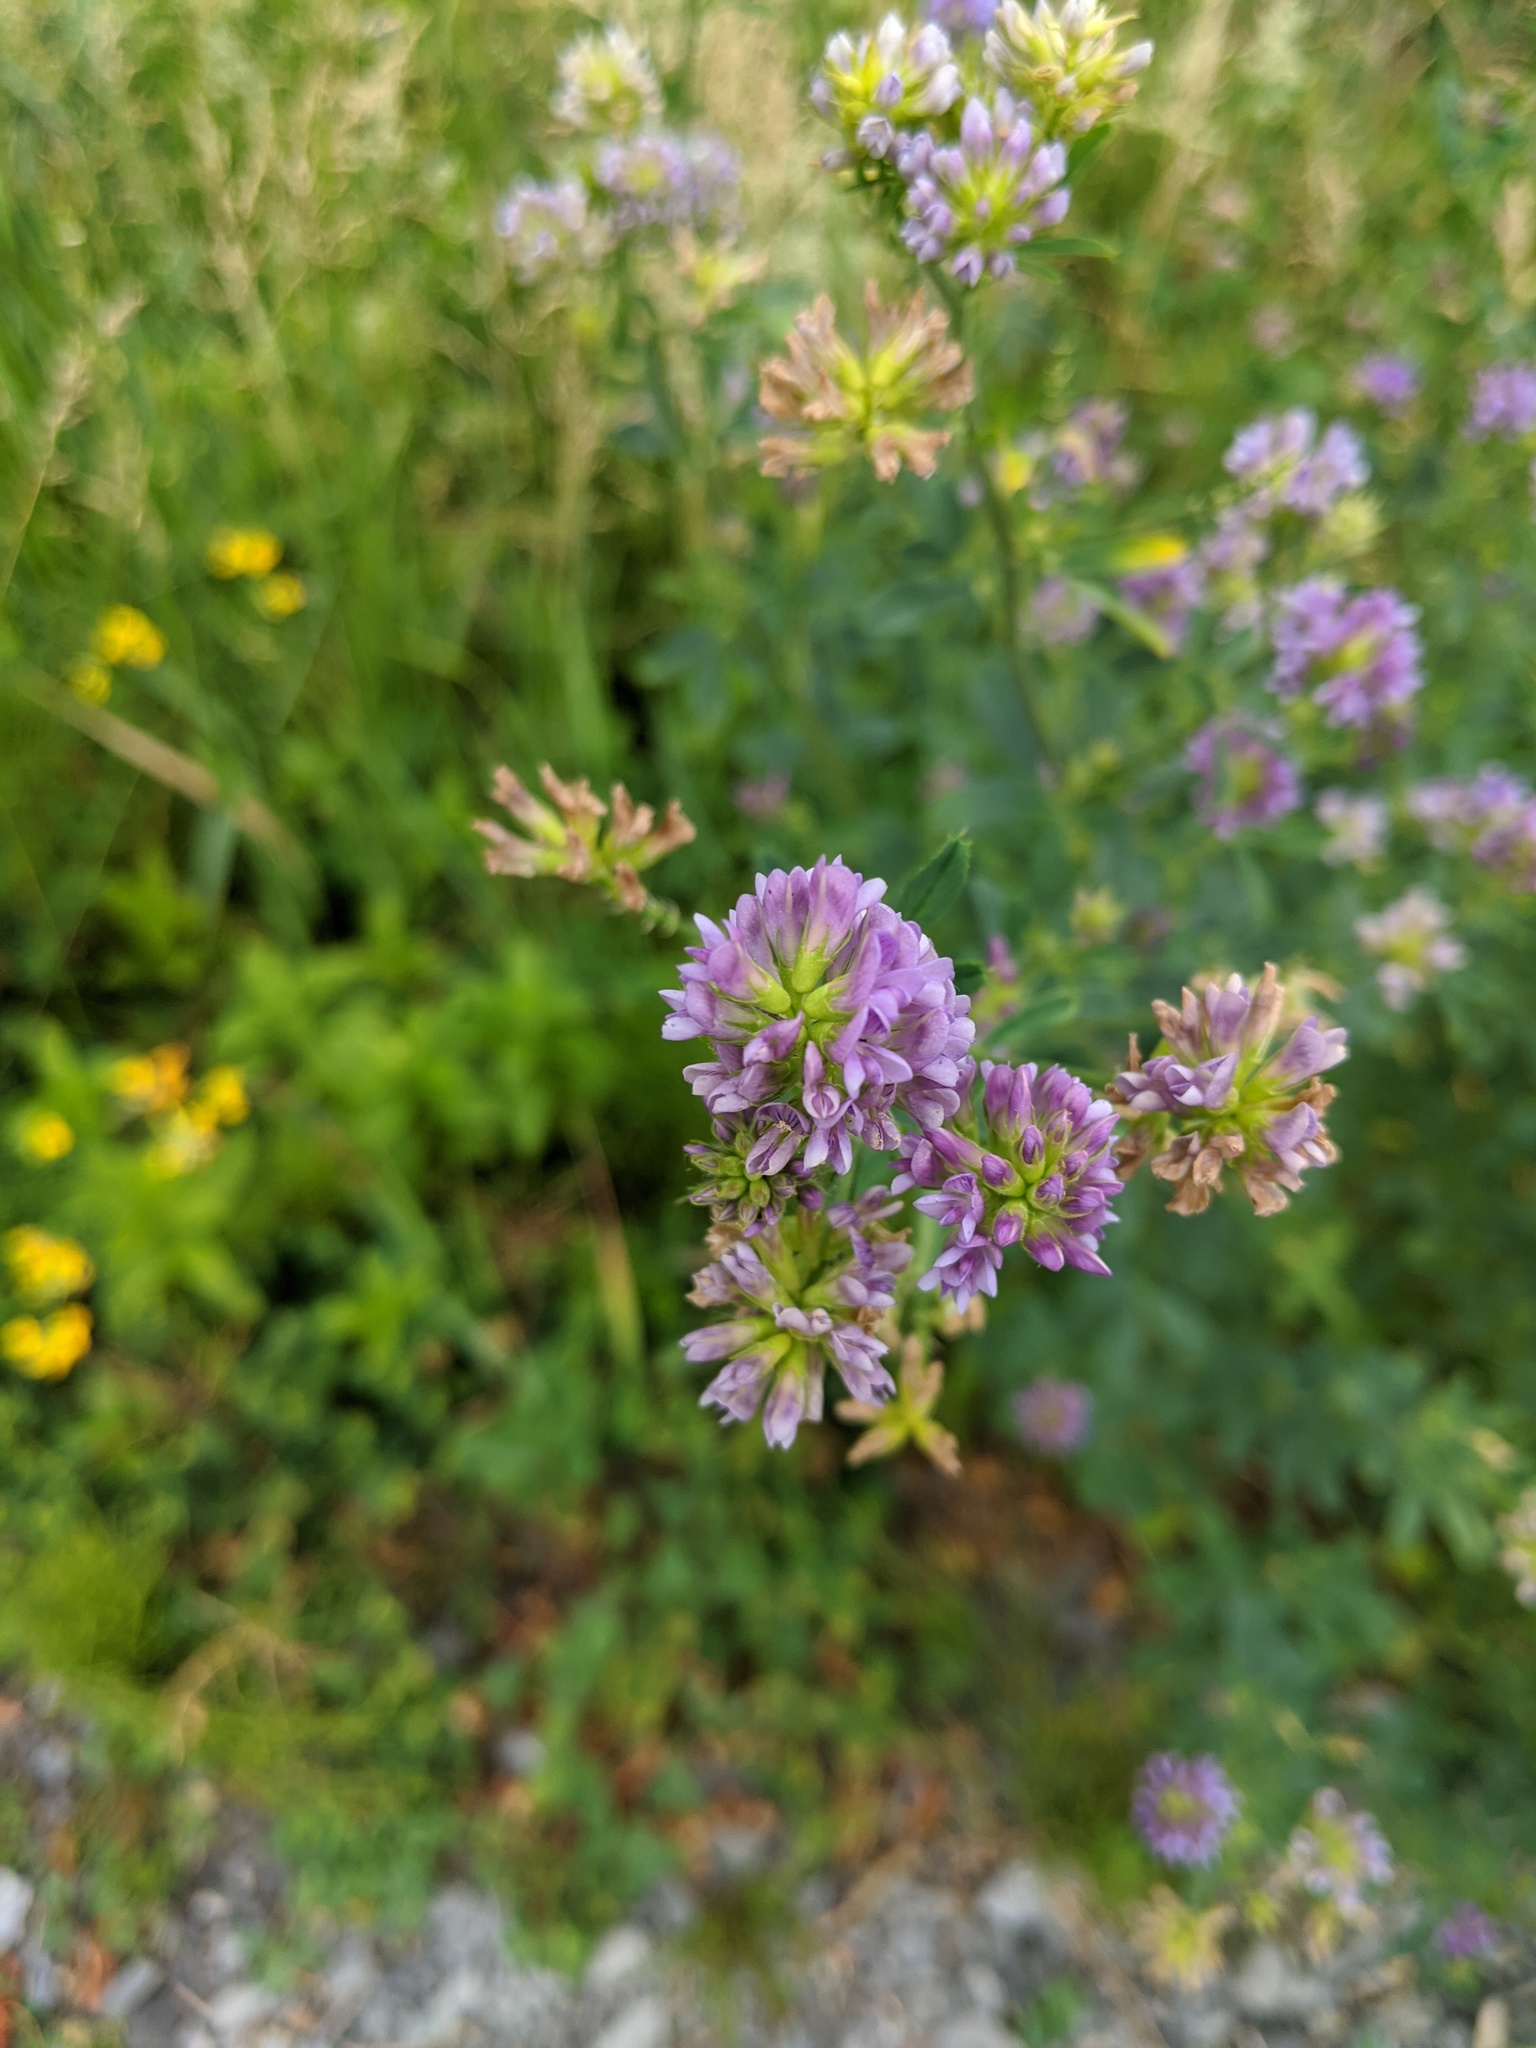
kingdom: Plantae
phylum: Tracheophyta
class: Magnoliopsida
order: Fabales
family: Fabaceae
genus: Medicago
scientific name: Medicago sativa
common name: Alfalfa
